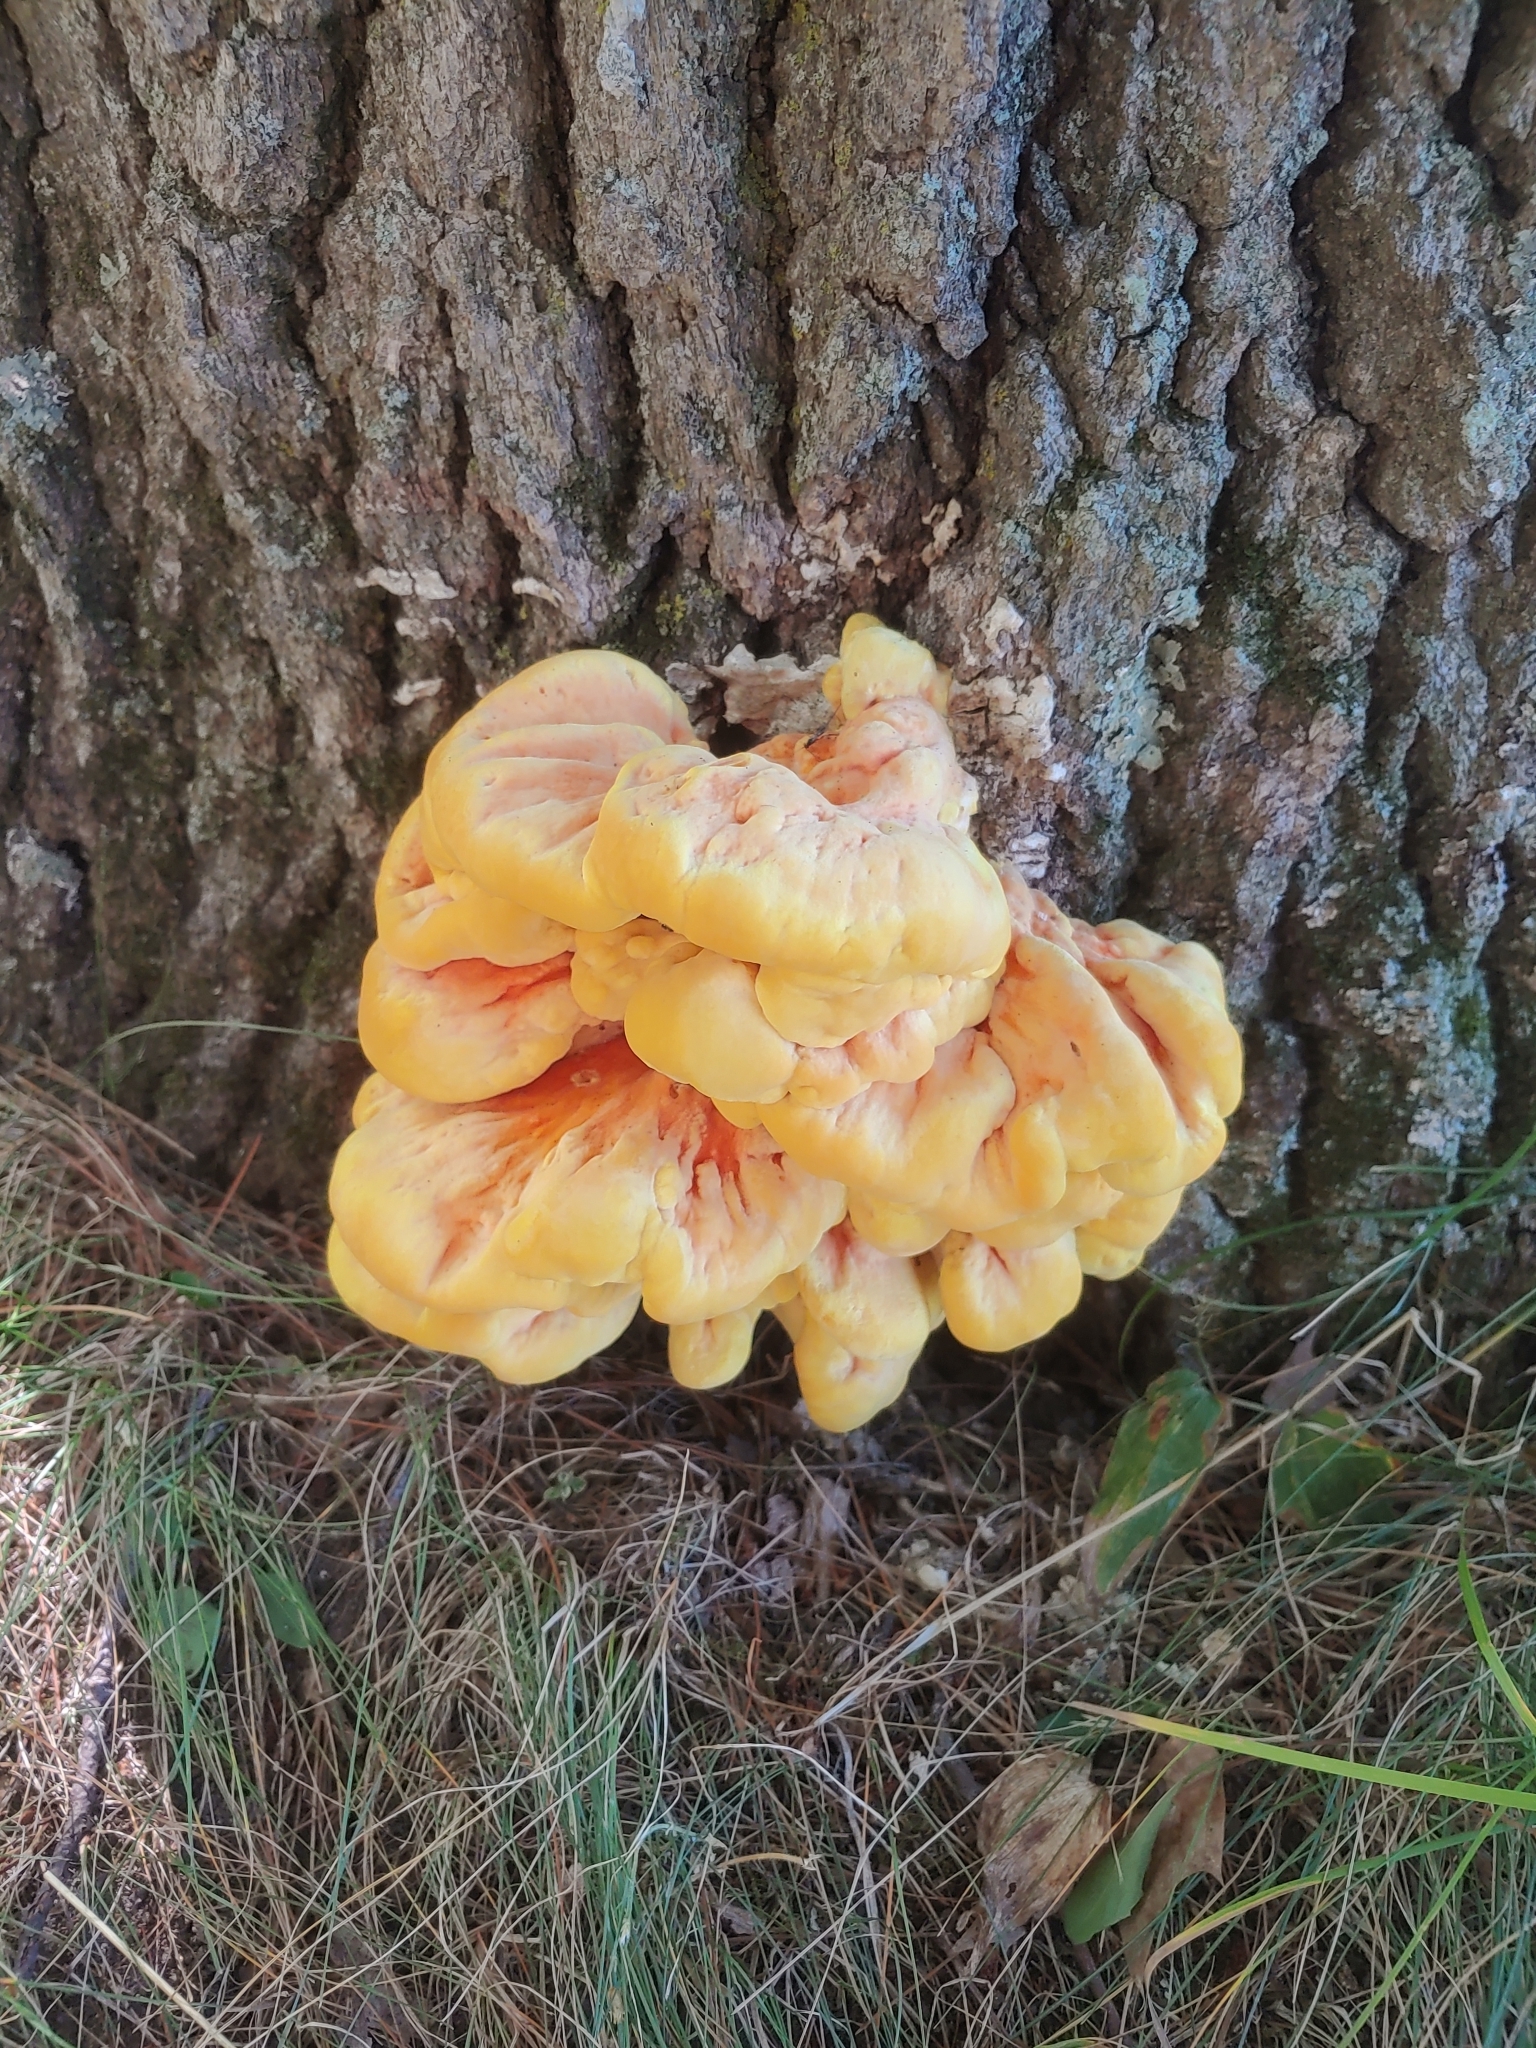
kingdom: Fungi
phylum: Basidiomycota
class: Agaricomycetes
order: Polyporales
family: Laetiporaceae
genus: Laetiporus
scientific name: Laetiporus sulphureus
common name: Chicken of the woods
